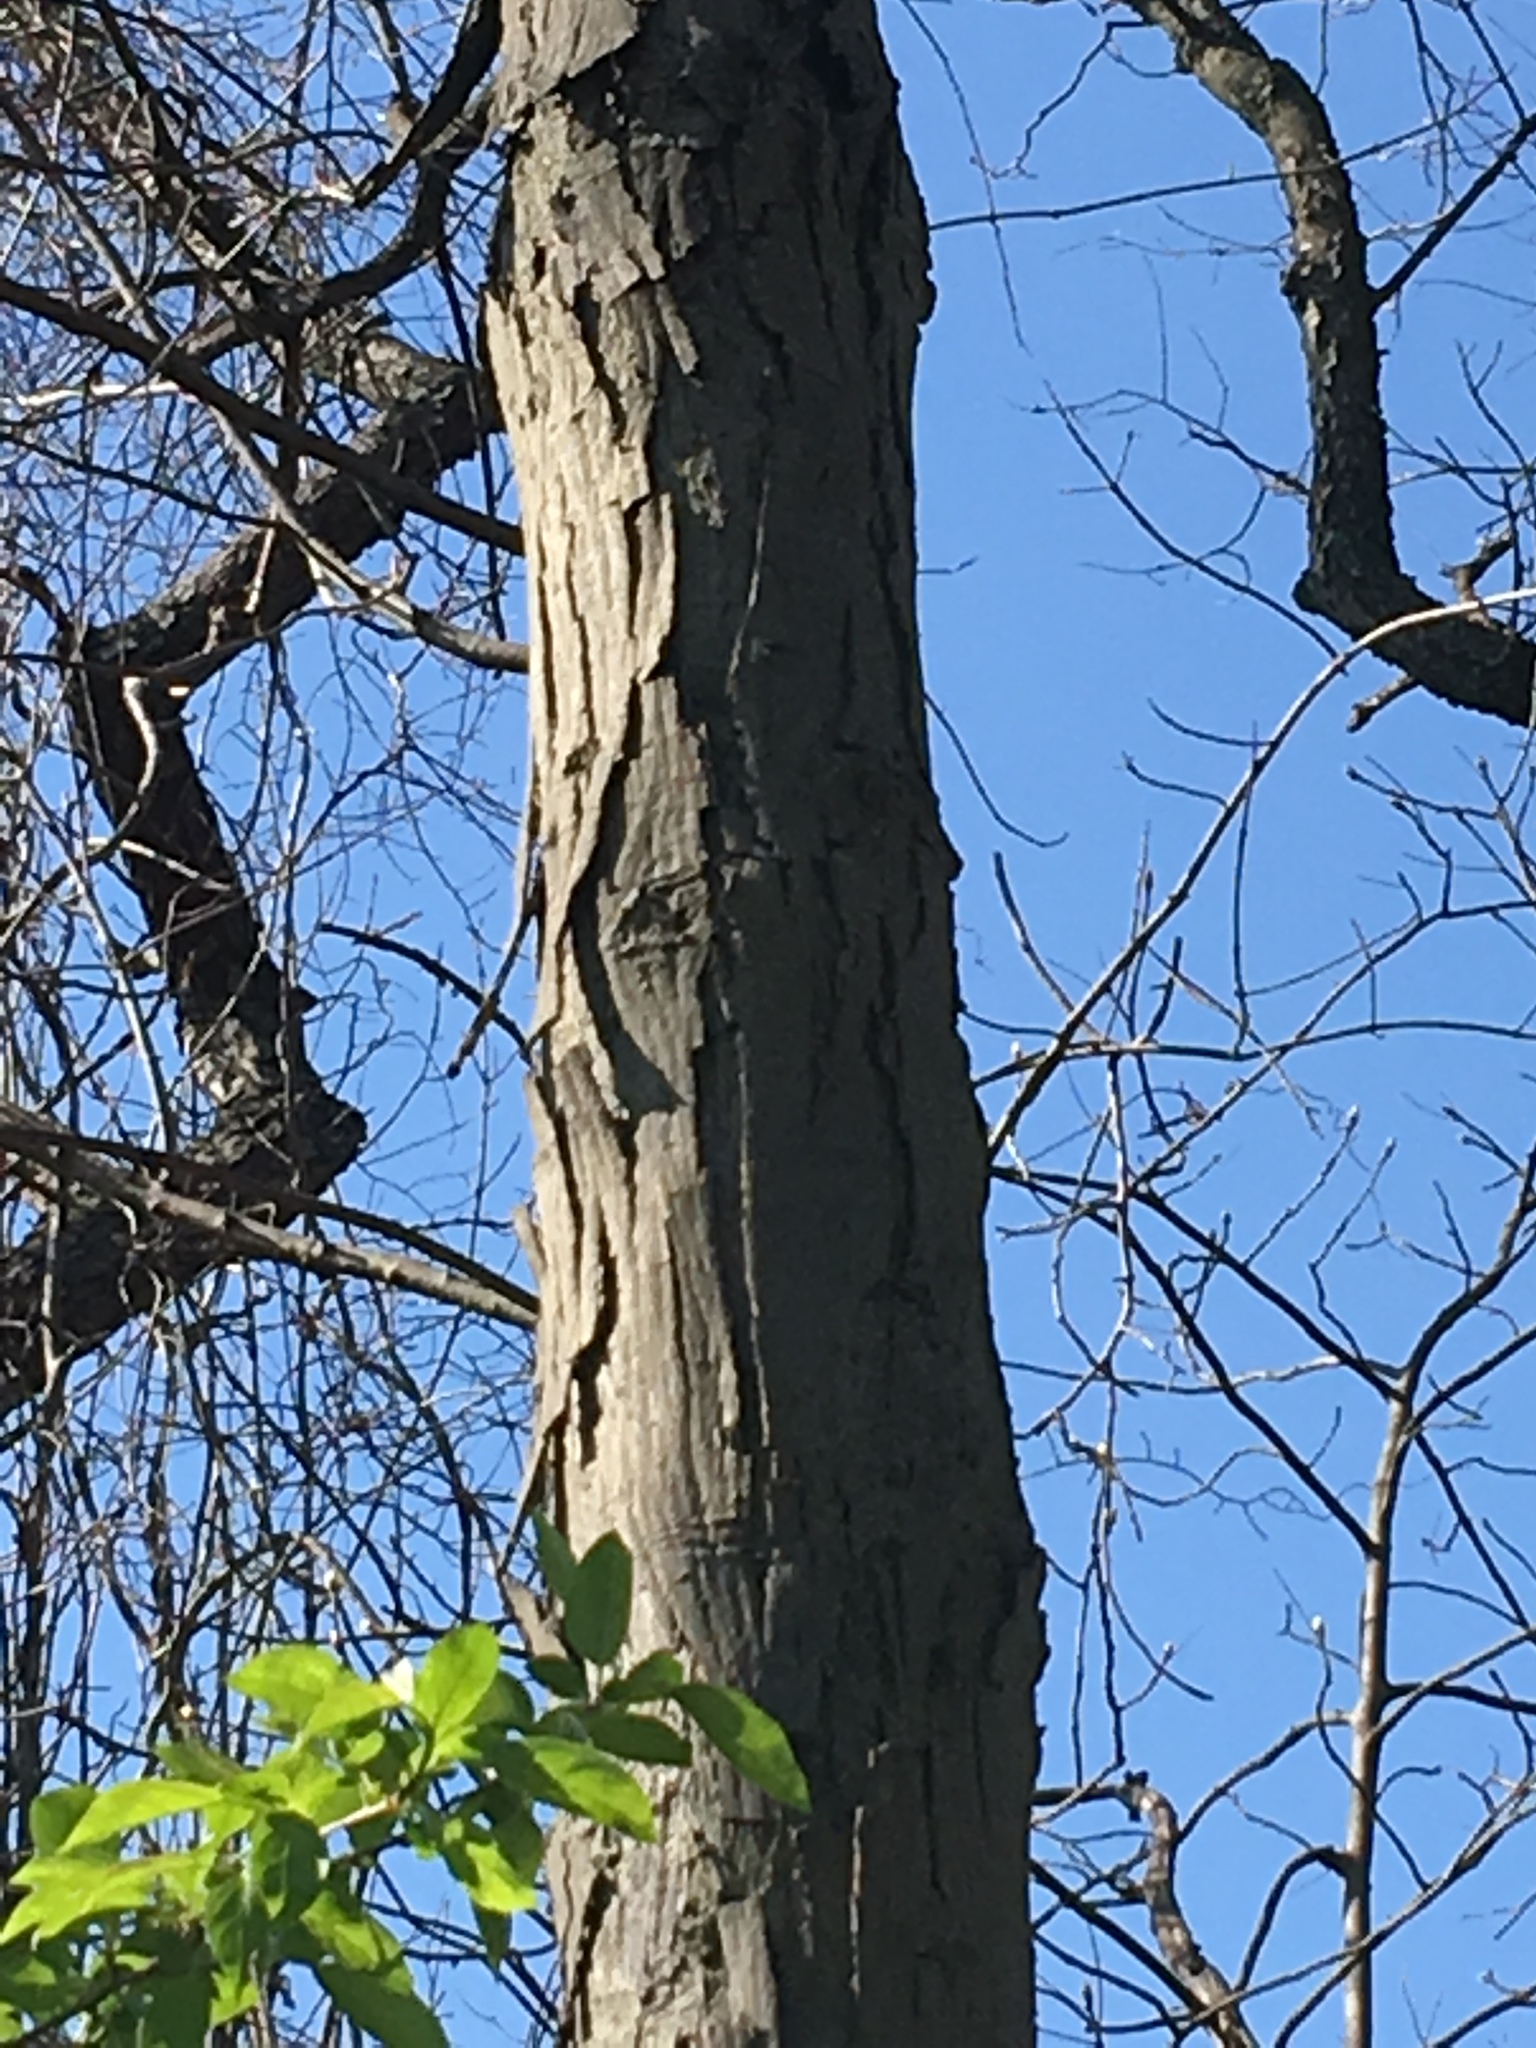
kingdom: Plantae
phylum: Tracheophyta
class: Magnoliopsida
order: Fagales
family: Juglandaceae
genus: Carya
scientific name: Carya ovata
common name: Shagbark hickory
